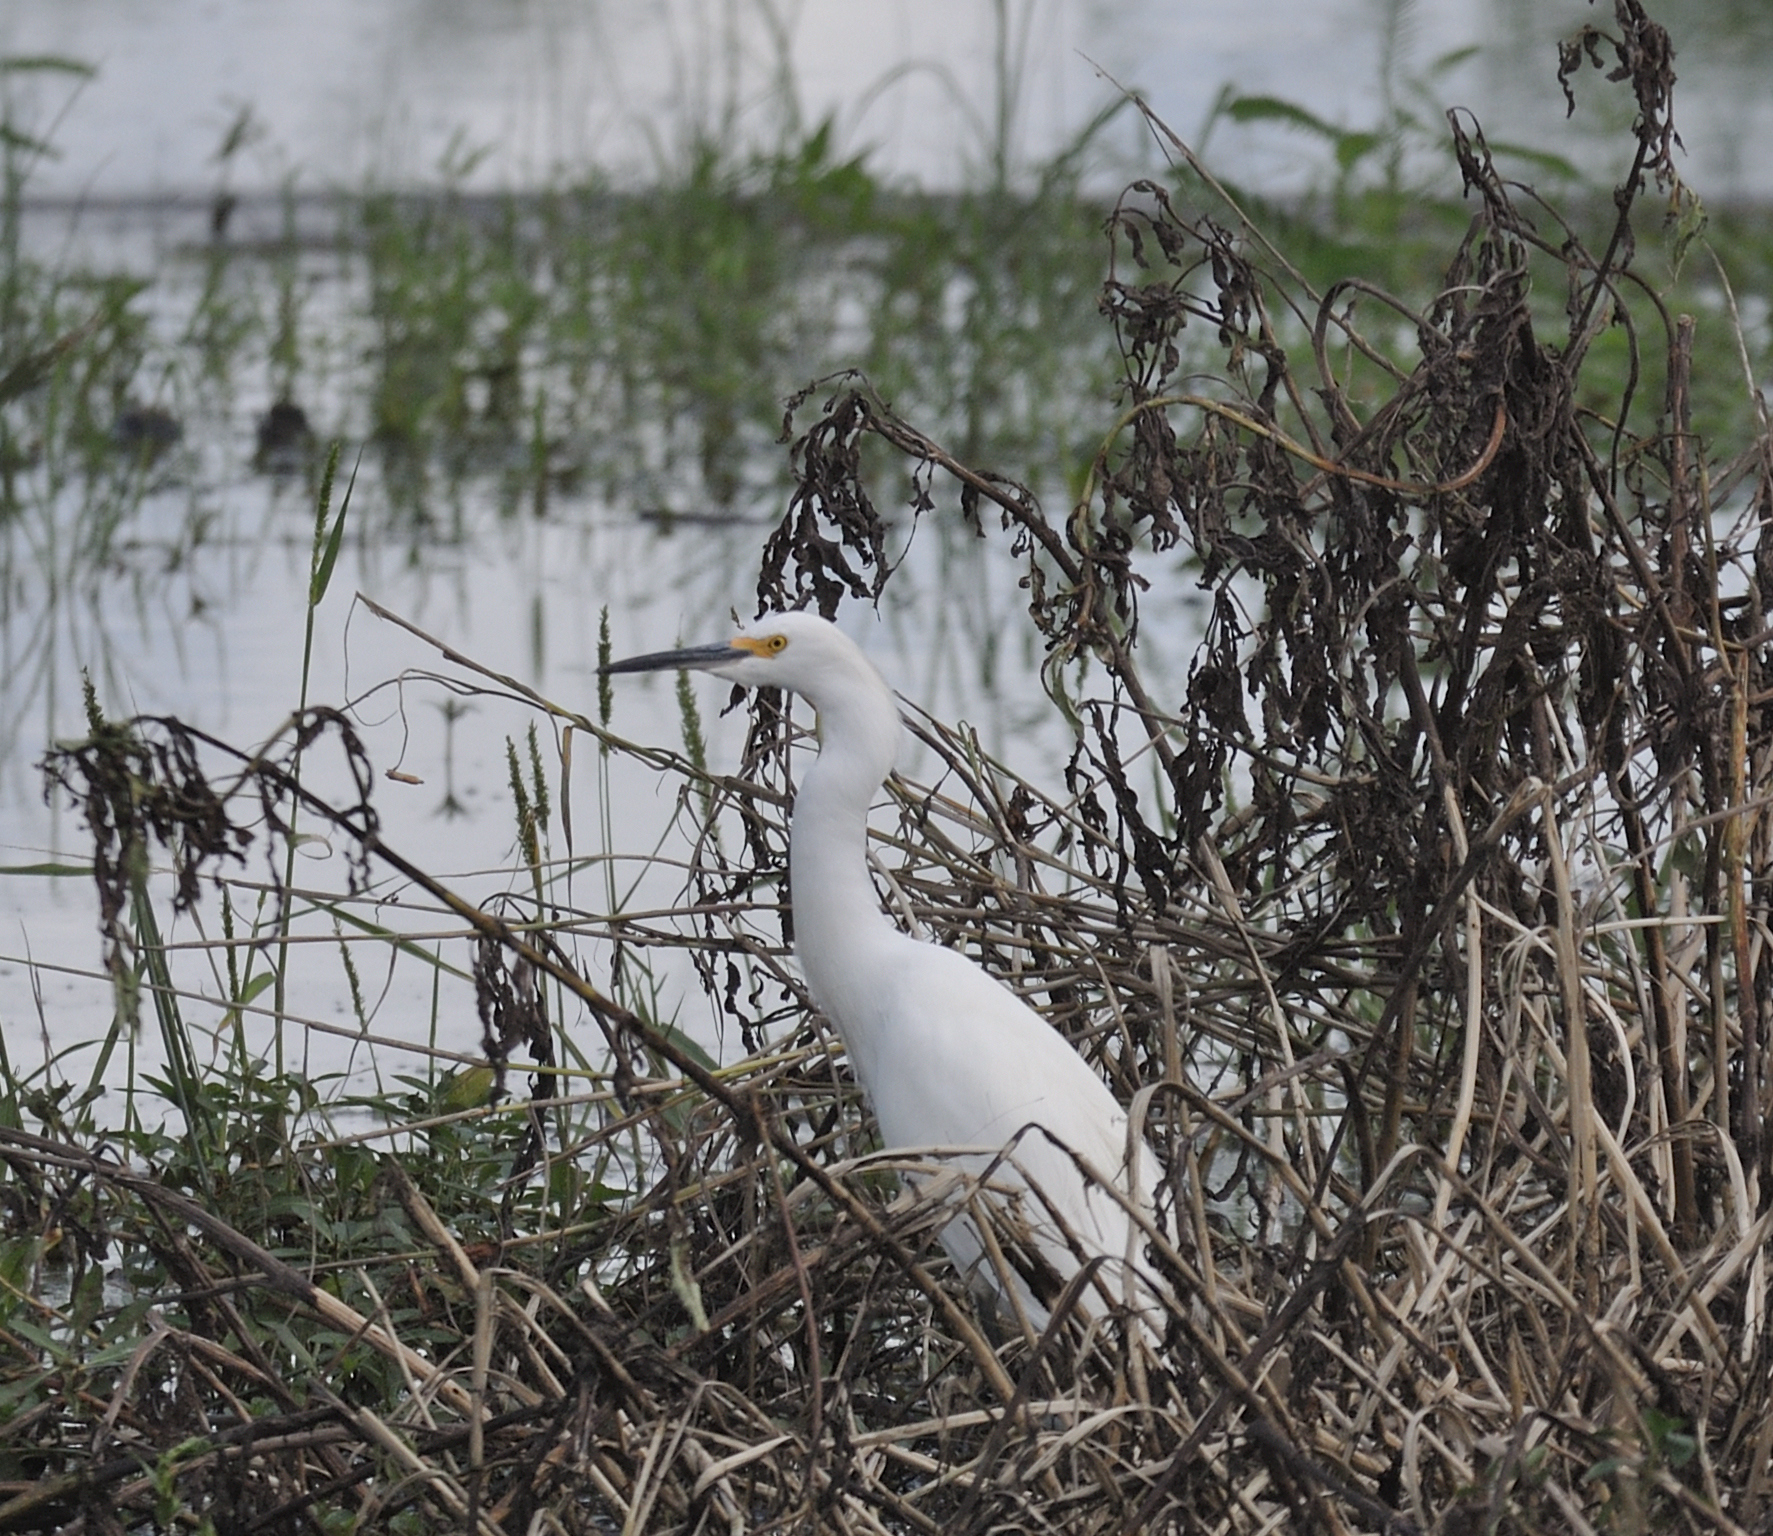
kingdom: Animalia
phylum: Chordata
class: Aves
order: Pelecaniformes
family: Ardeidae
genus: Egretta
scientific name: Egretta thula
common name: Snowy egret
